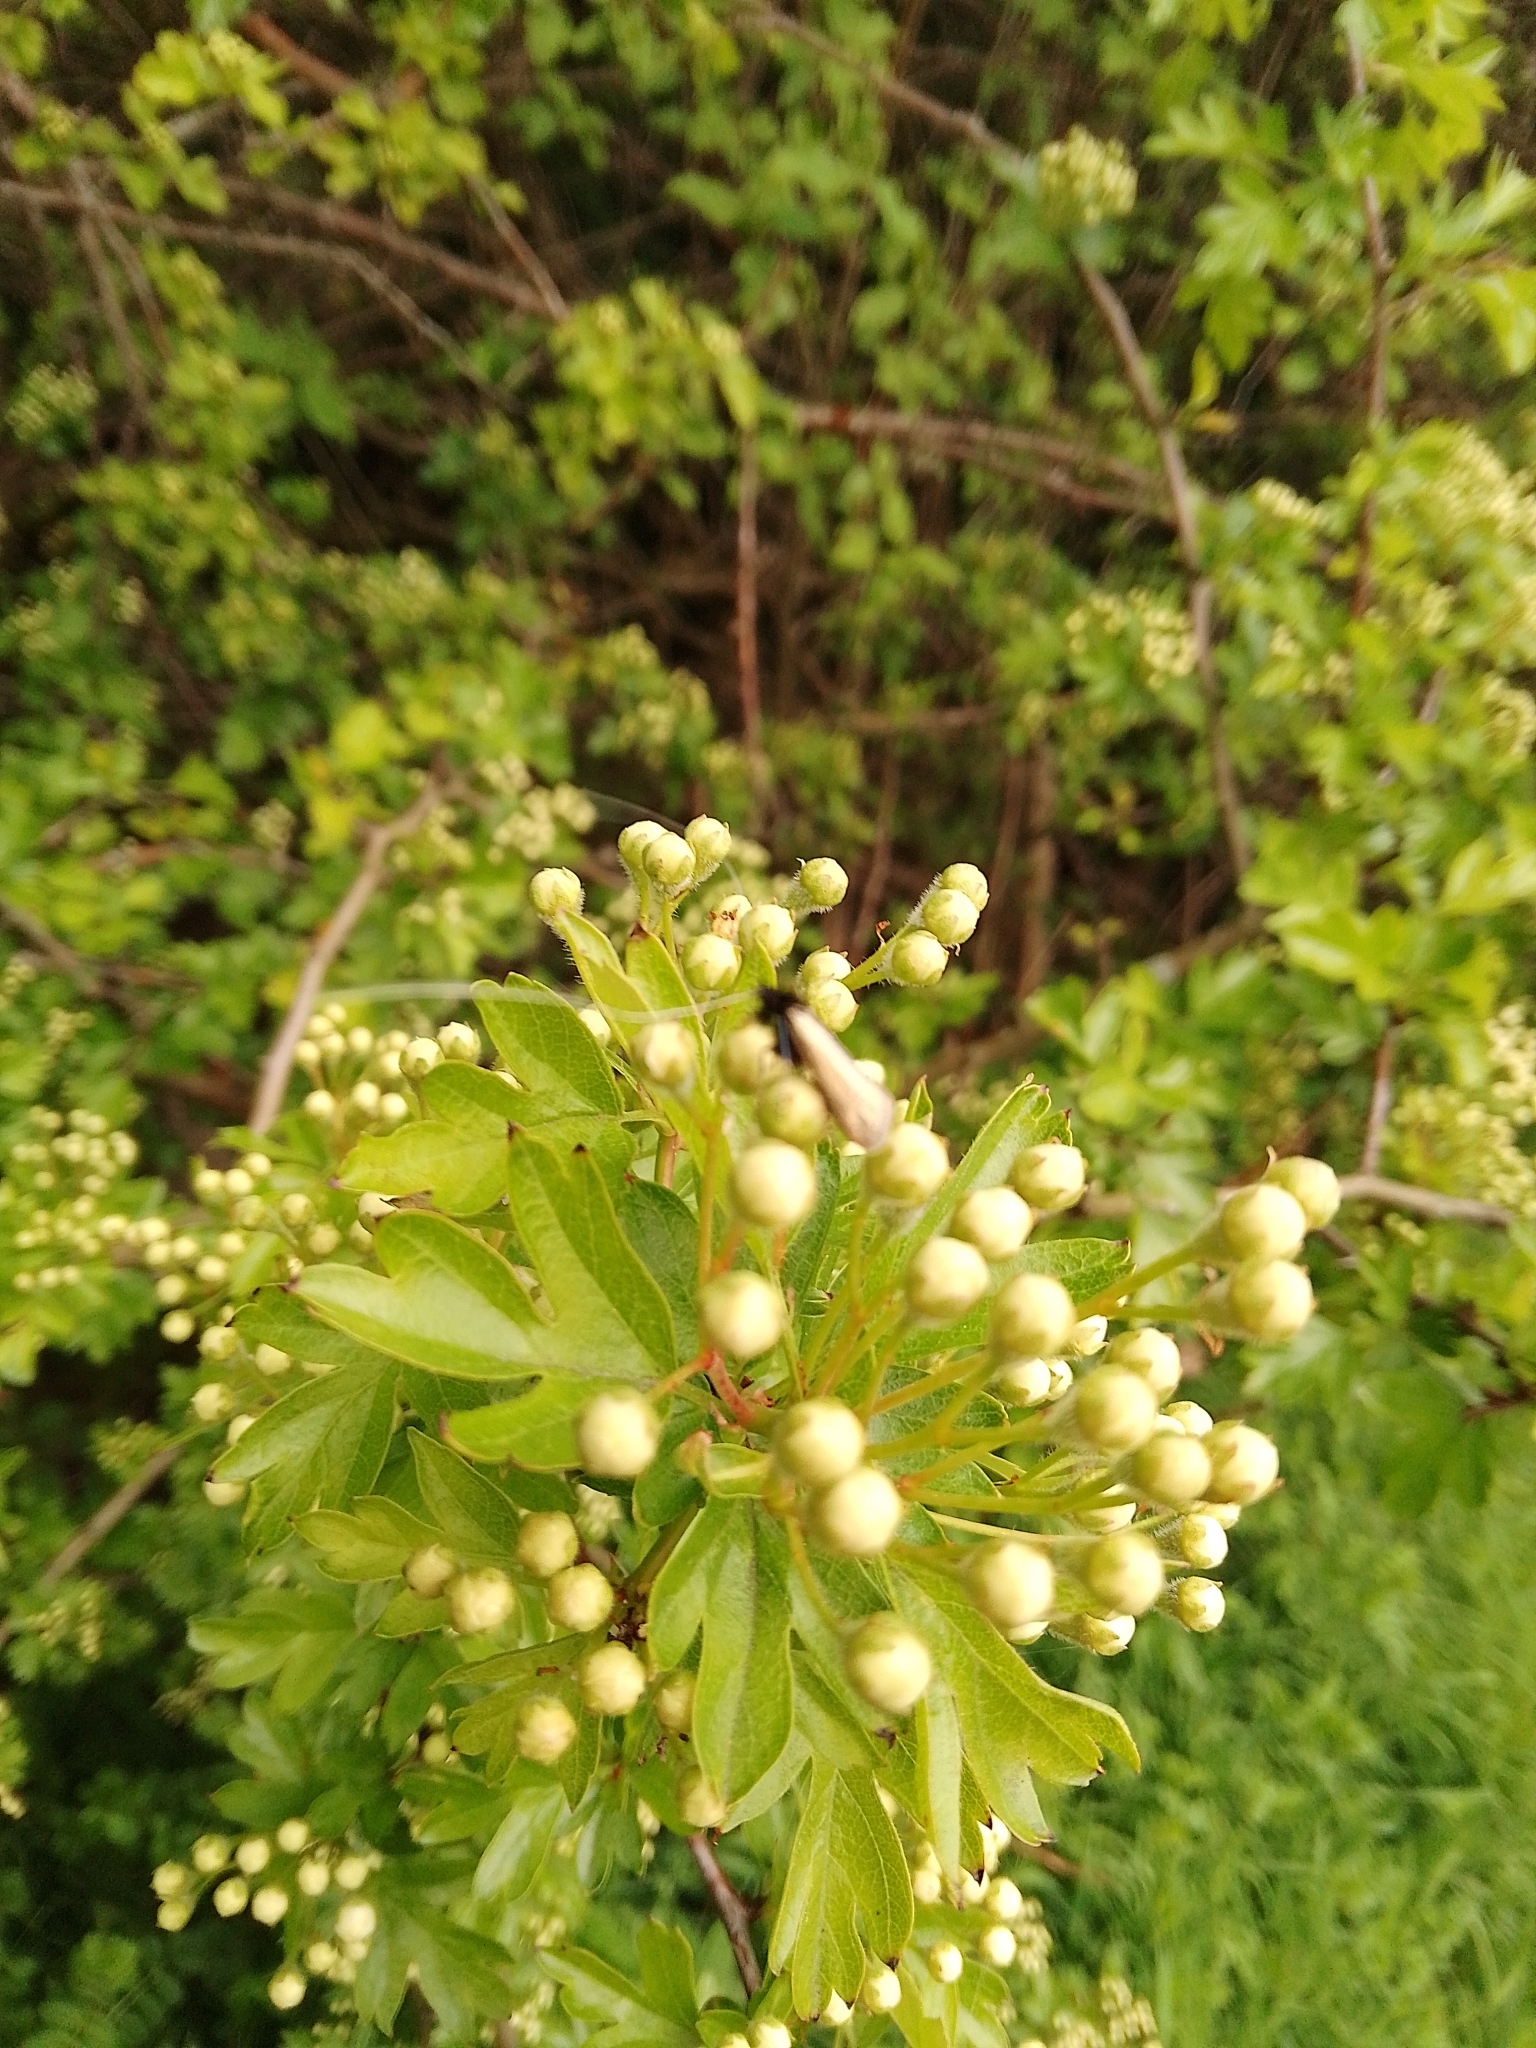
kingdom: Animalia
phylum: Arthropoda
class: Insecta
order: Lepidoptera
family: Adelidae
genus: Adela
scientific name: Adela viridella
